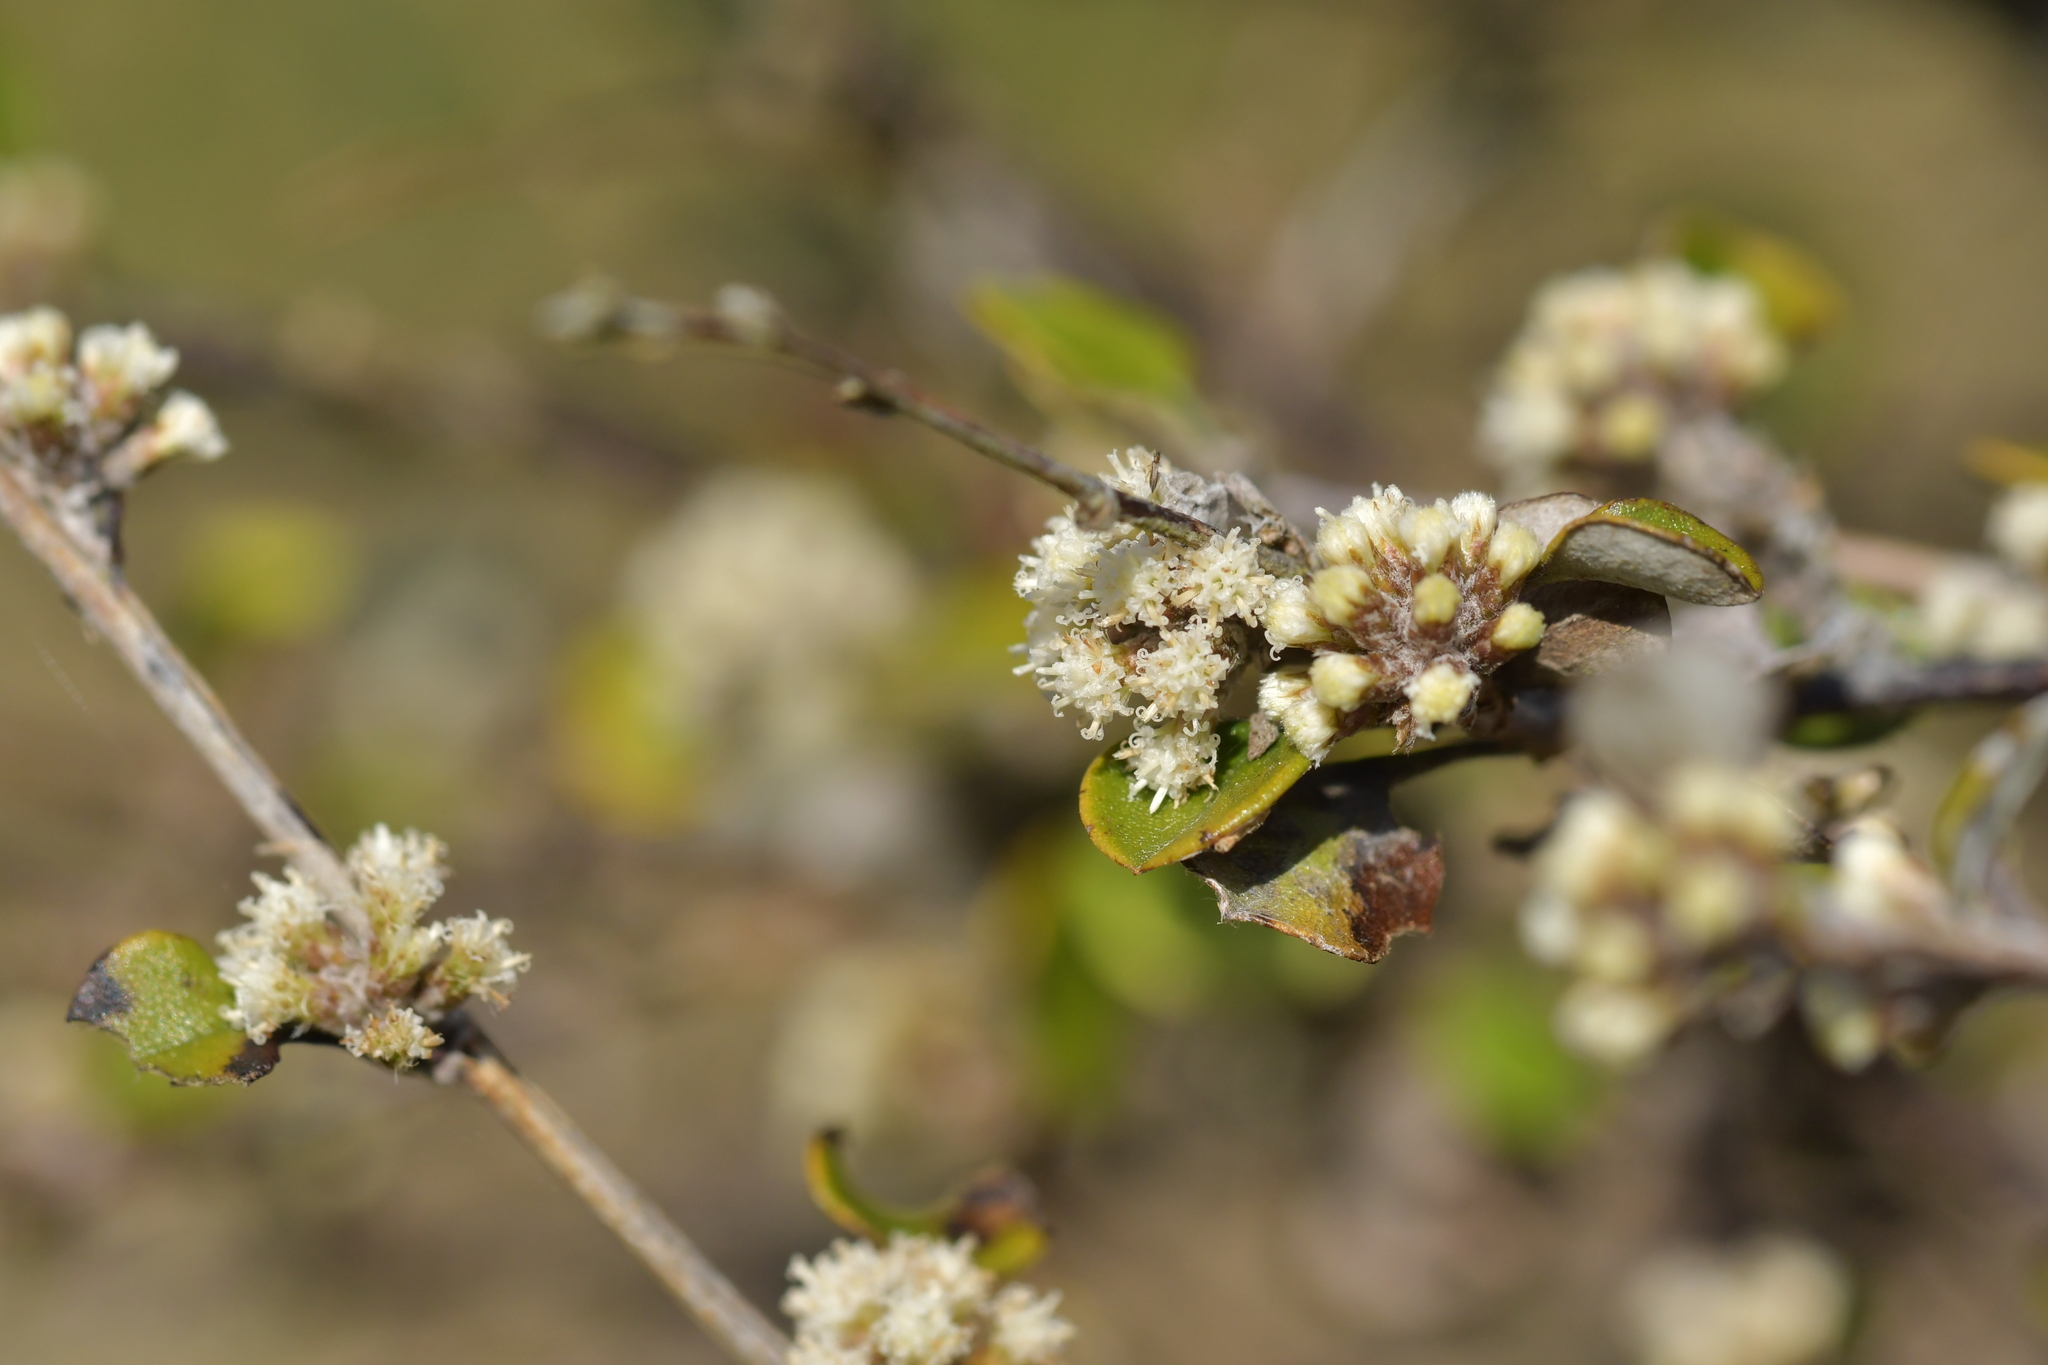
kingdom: Plantae
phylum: Tracheophyta
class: Magnoliopsida
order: Asterales
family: Asteraceae
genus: Ozothamnus
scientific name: Ozothamnus glomeratus
